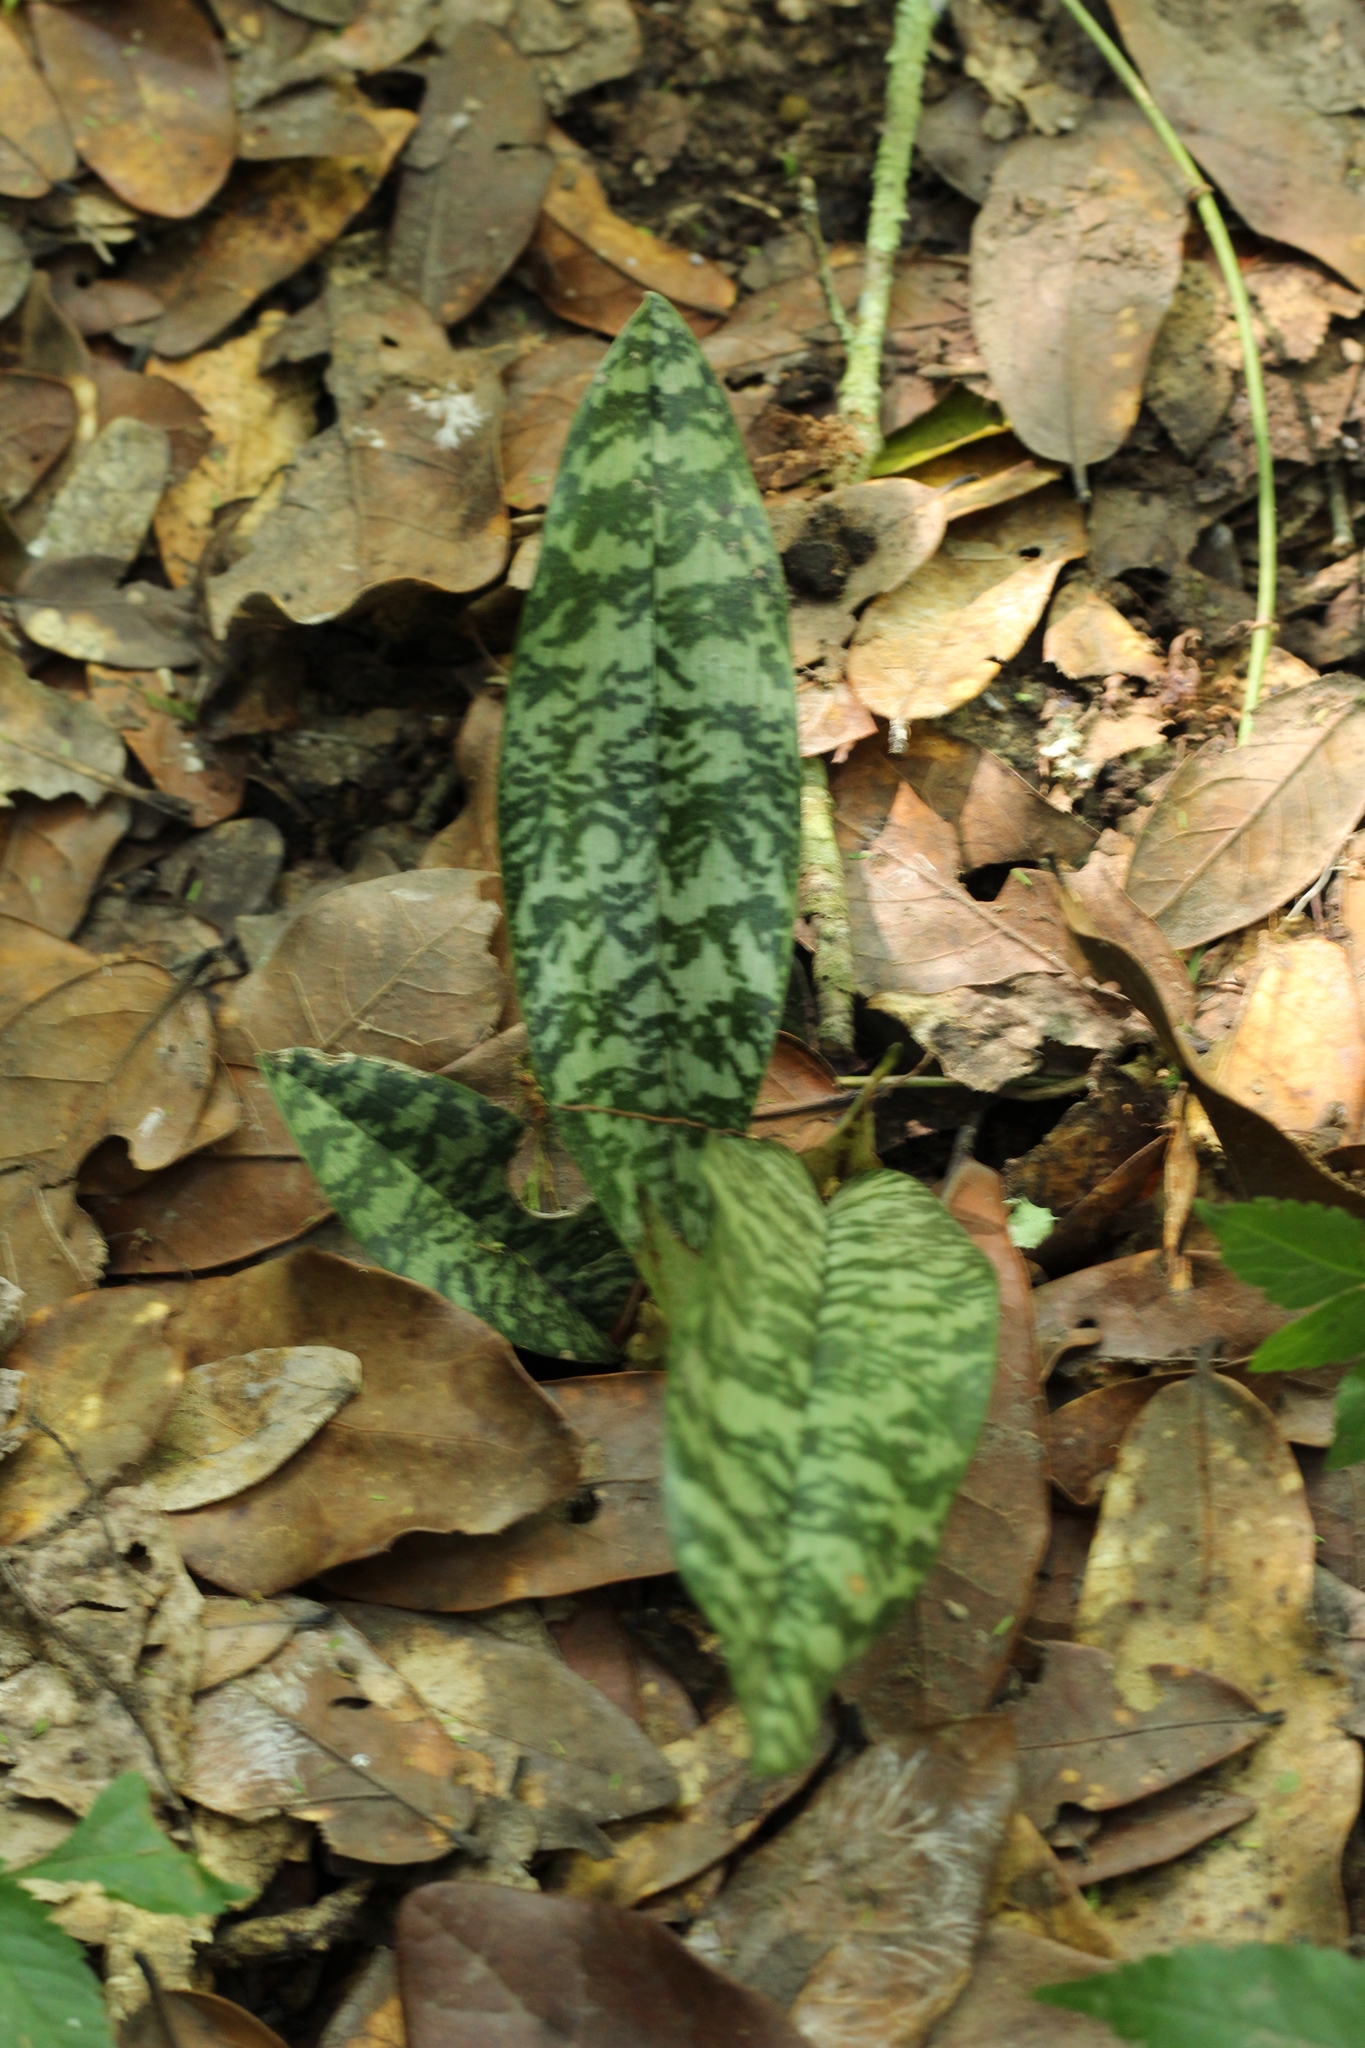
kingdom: Plantae
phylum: Tracheophyta
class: Liliopsida
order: Asparagales
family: Orchidaceae
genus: Eulophia
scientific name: Eulophia maculata
